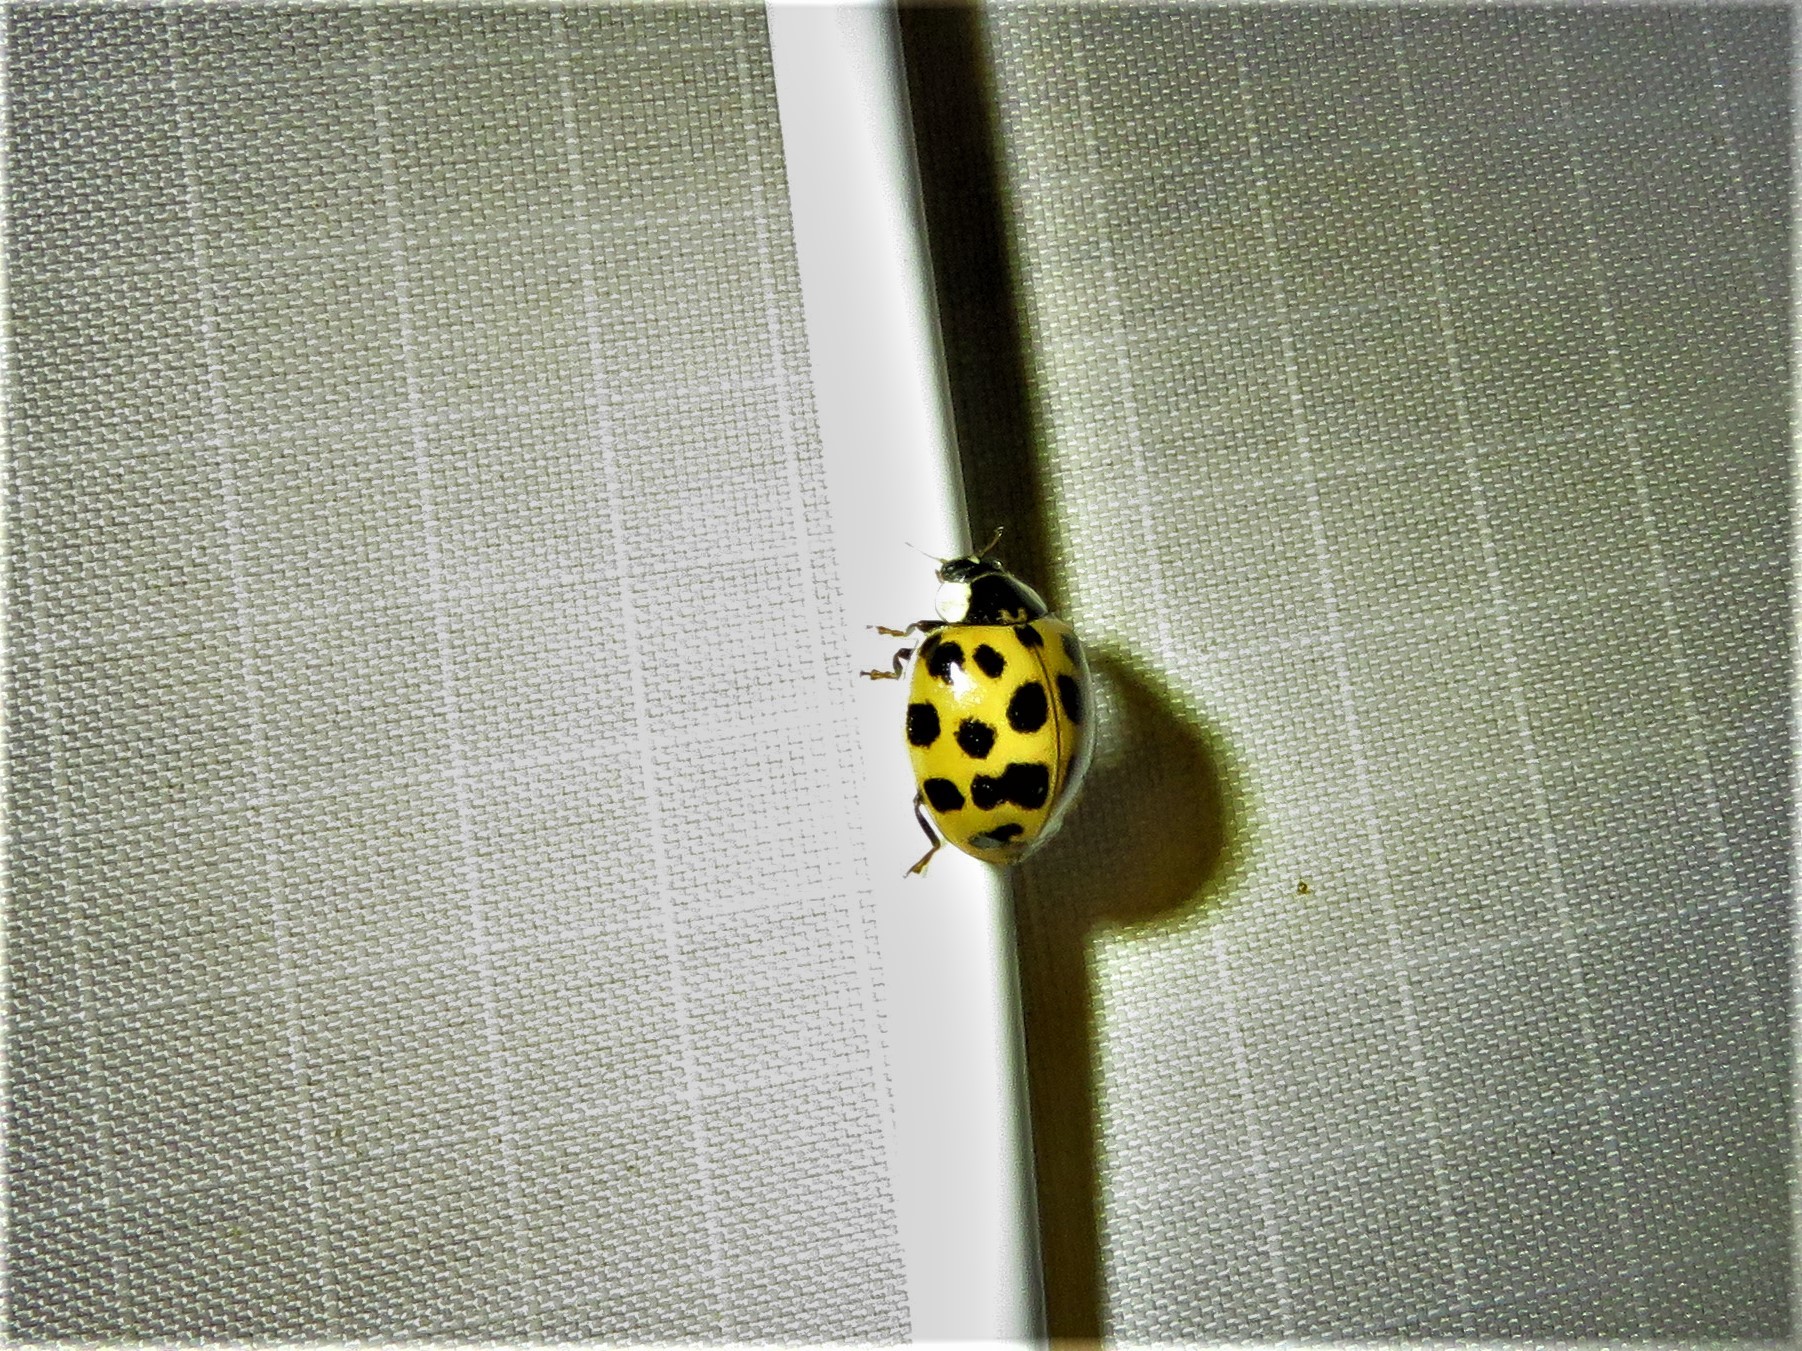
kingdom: Animalia
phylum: Arthropoda
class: Insecta
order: Coleoptera
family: Coccinellidae
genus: Harmonia
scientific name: Harmonia axyridis
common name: Harlequin ladybird
